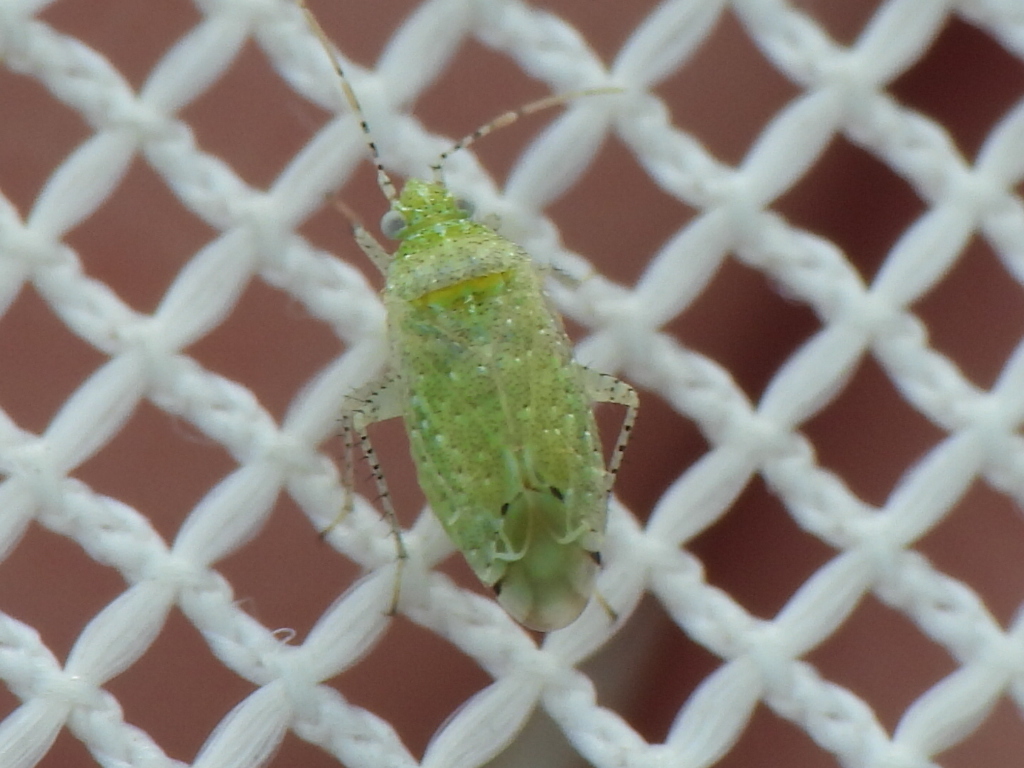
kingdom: Animalia
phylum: Arthropoda
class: Insecta
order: Hemiptera
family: Miridae
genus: Pseudatomoscelis
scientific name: Pseudatomoscelis seriatus
